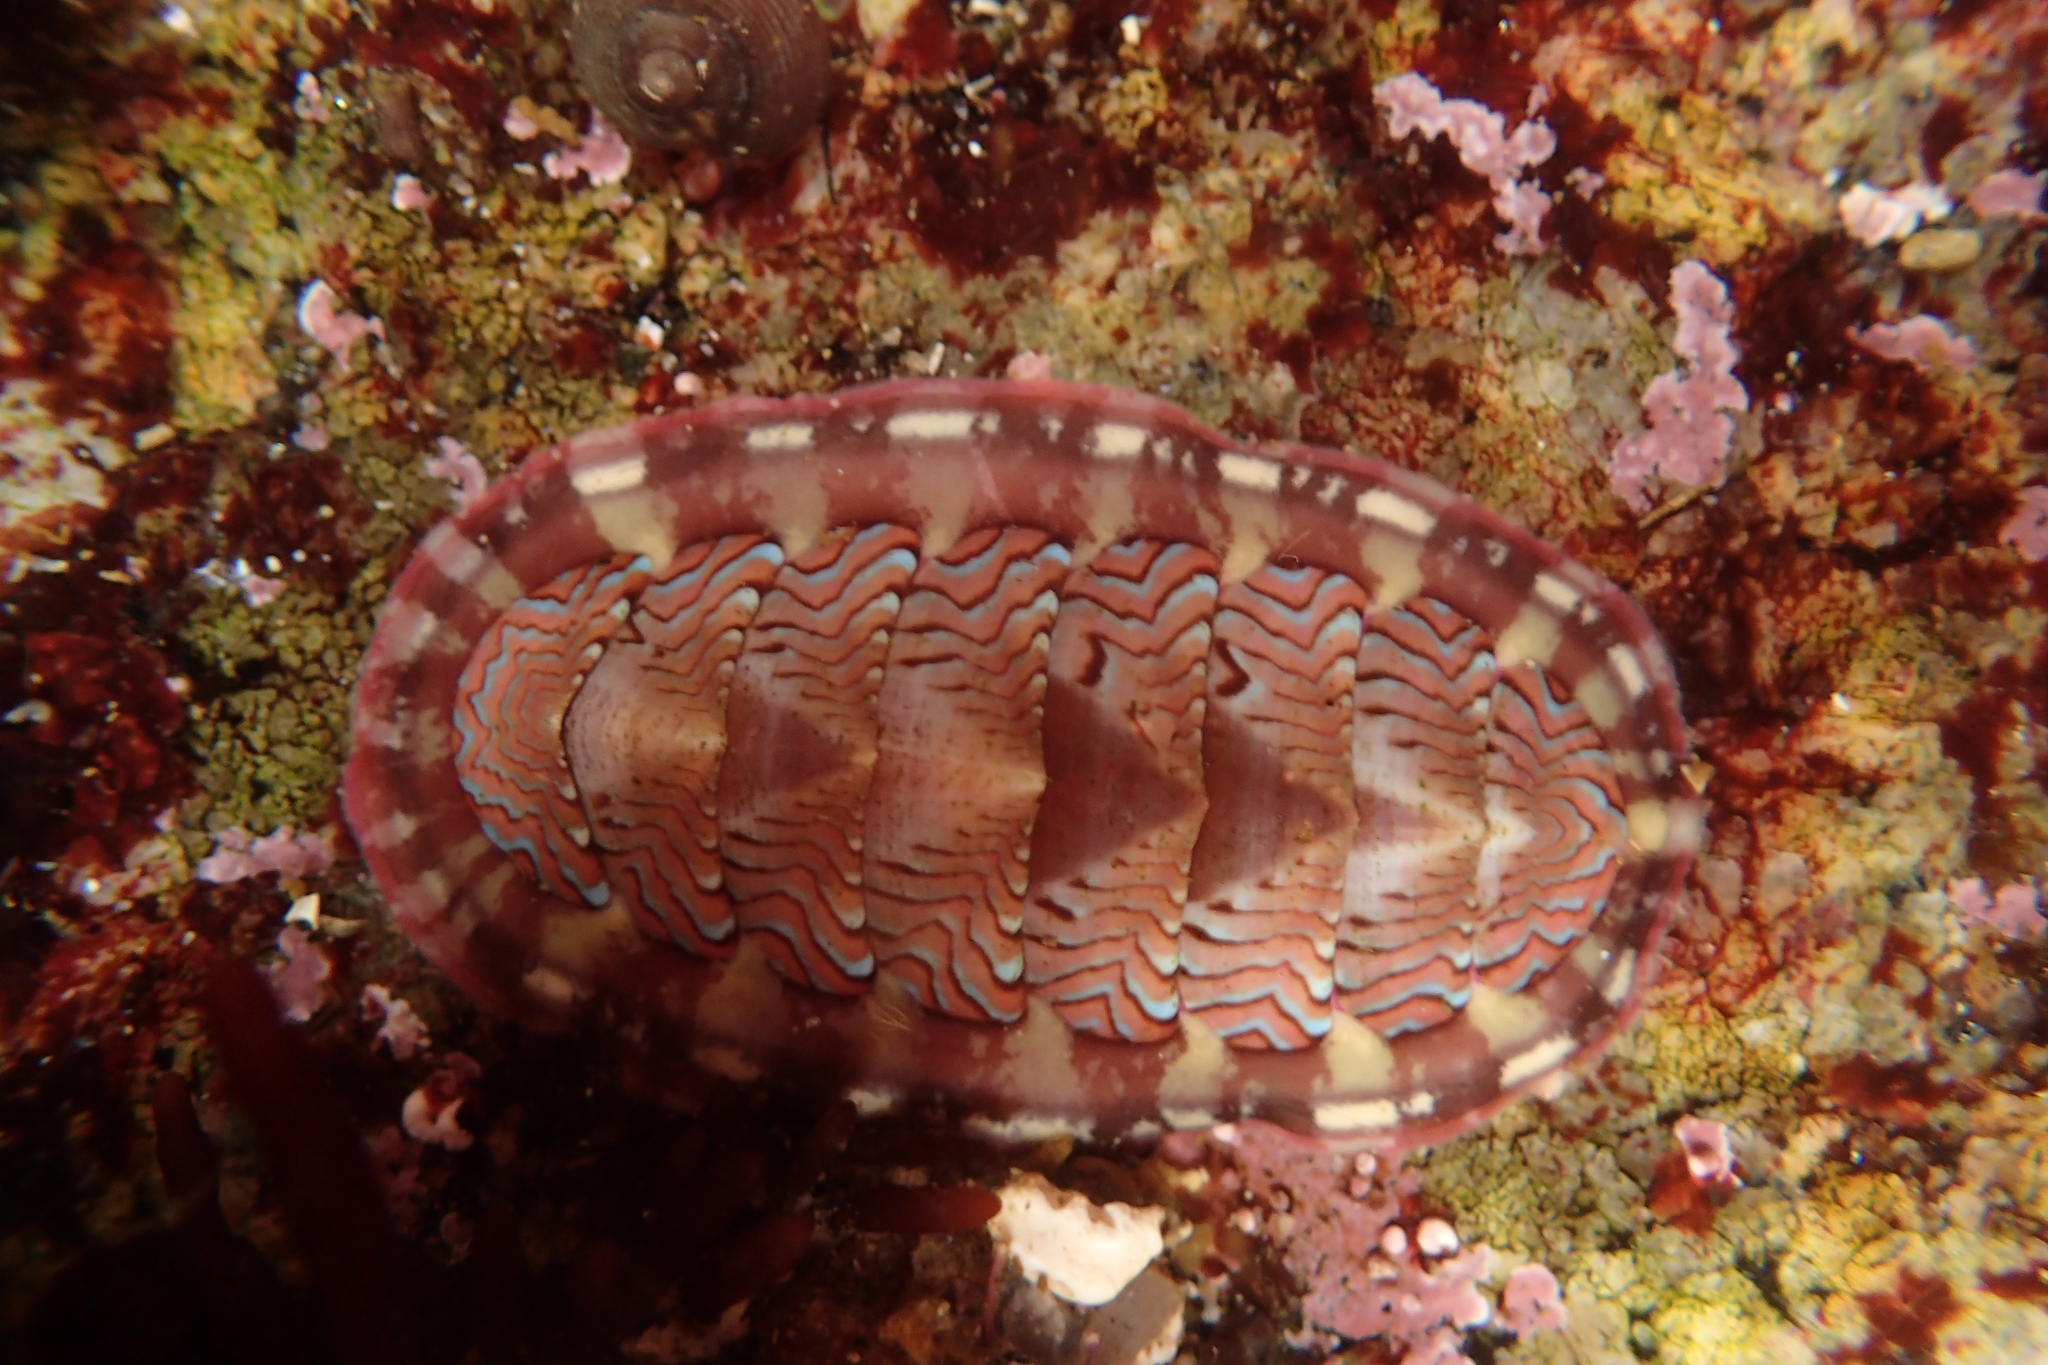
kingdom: Animalia
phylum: Mollusca
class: Polyplacophora
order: Chitonida
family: Tonicellidae
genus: Tonicella
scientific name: Tonicella lokii
